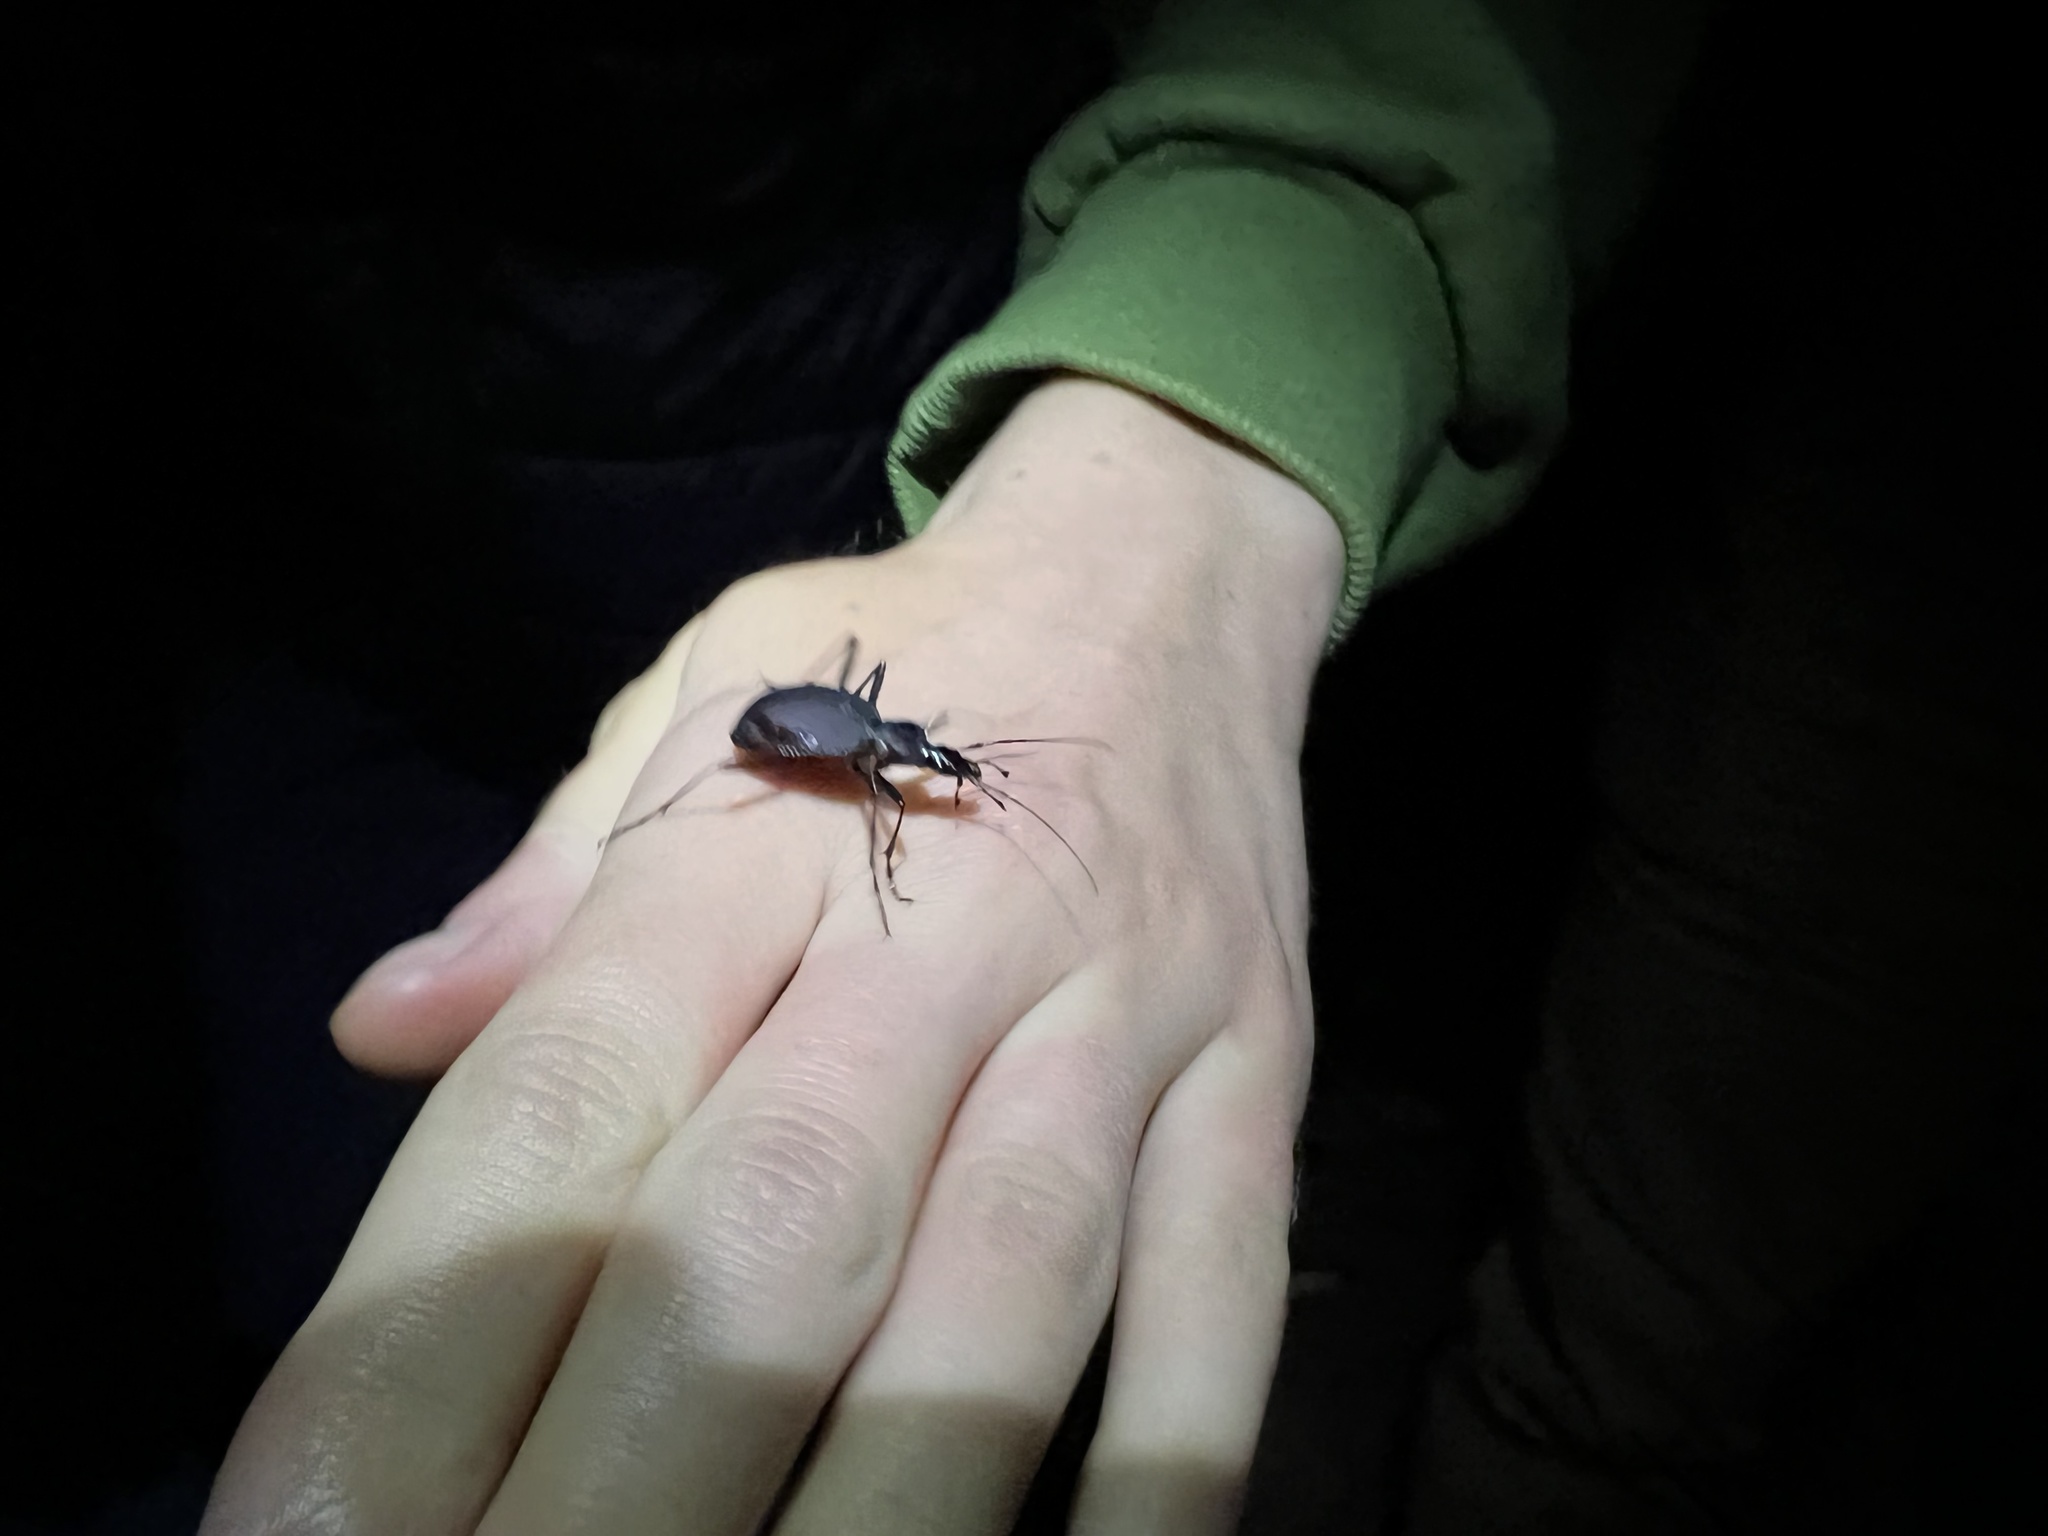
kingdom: Animalia
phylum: Arthropoda
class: Insecta
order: Coleoptera
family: Carabidae
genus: Scaphinotus
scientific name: Scaphinotus angusticollis
